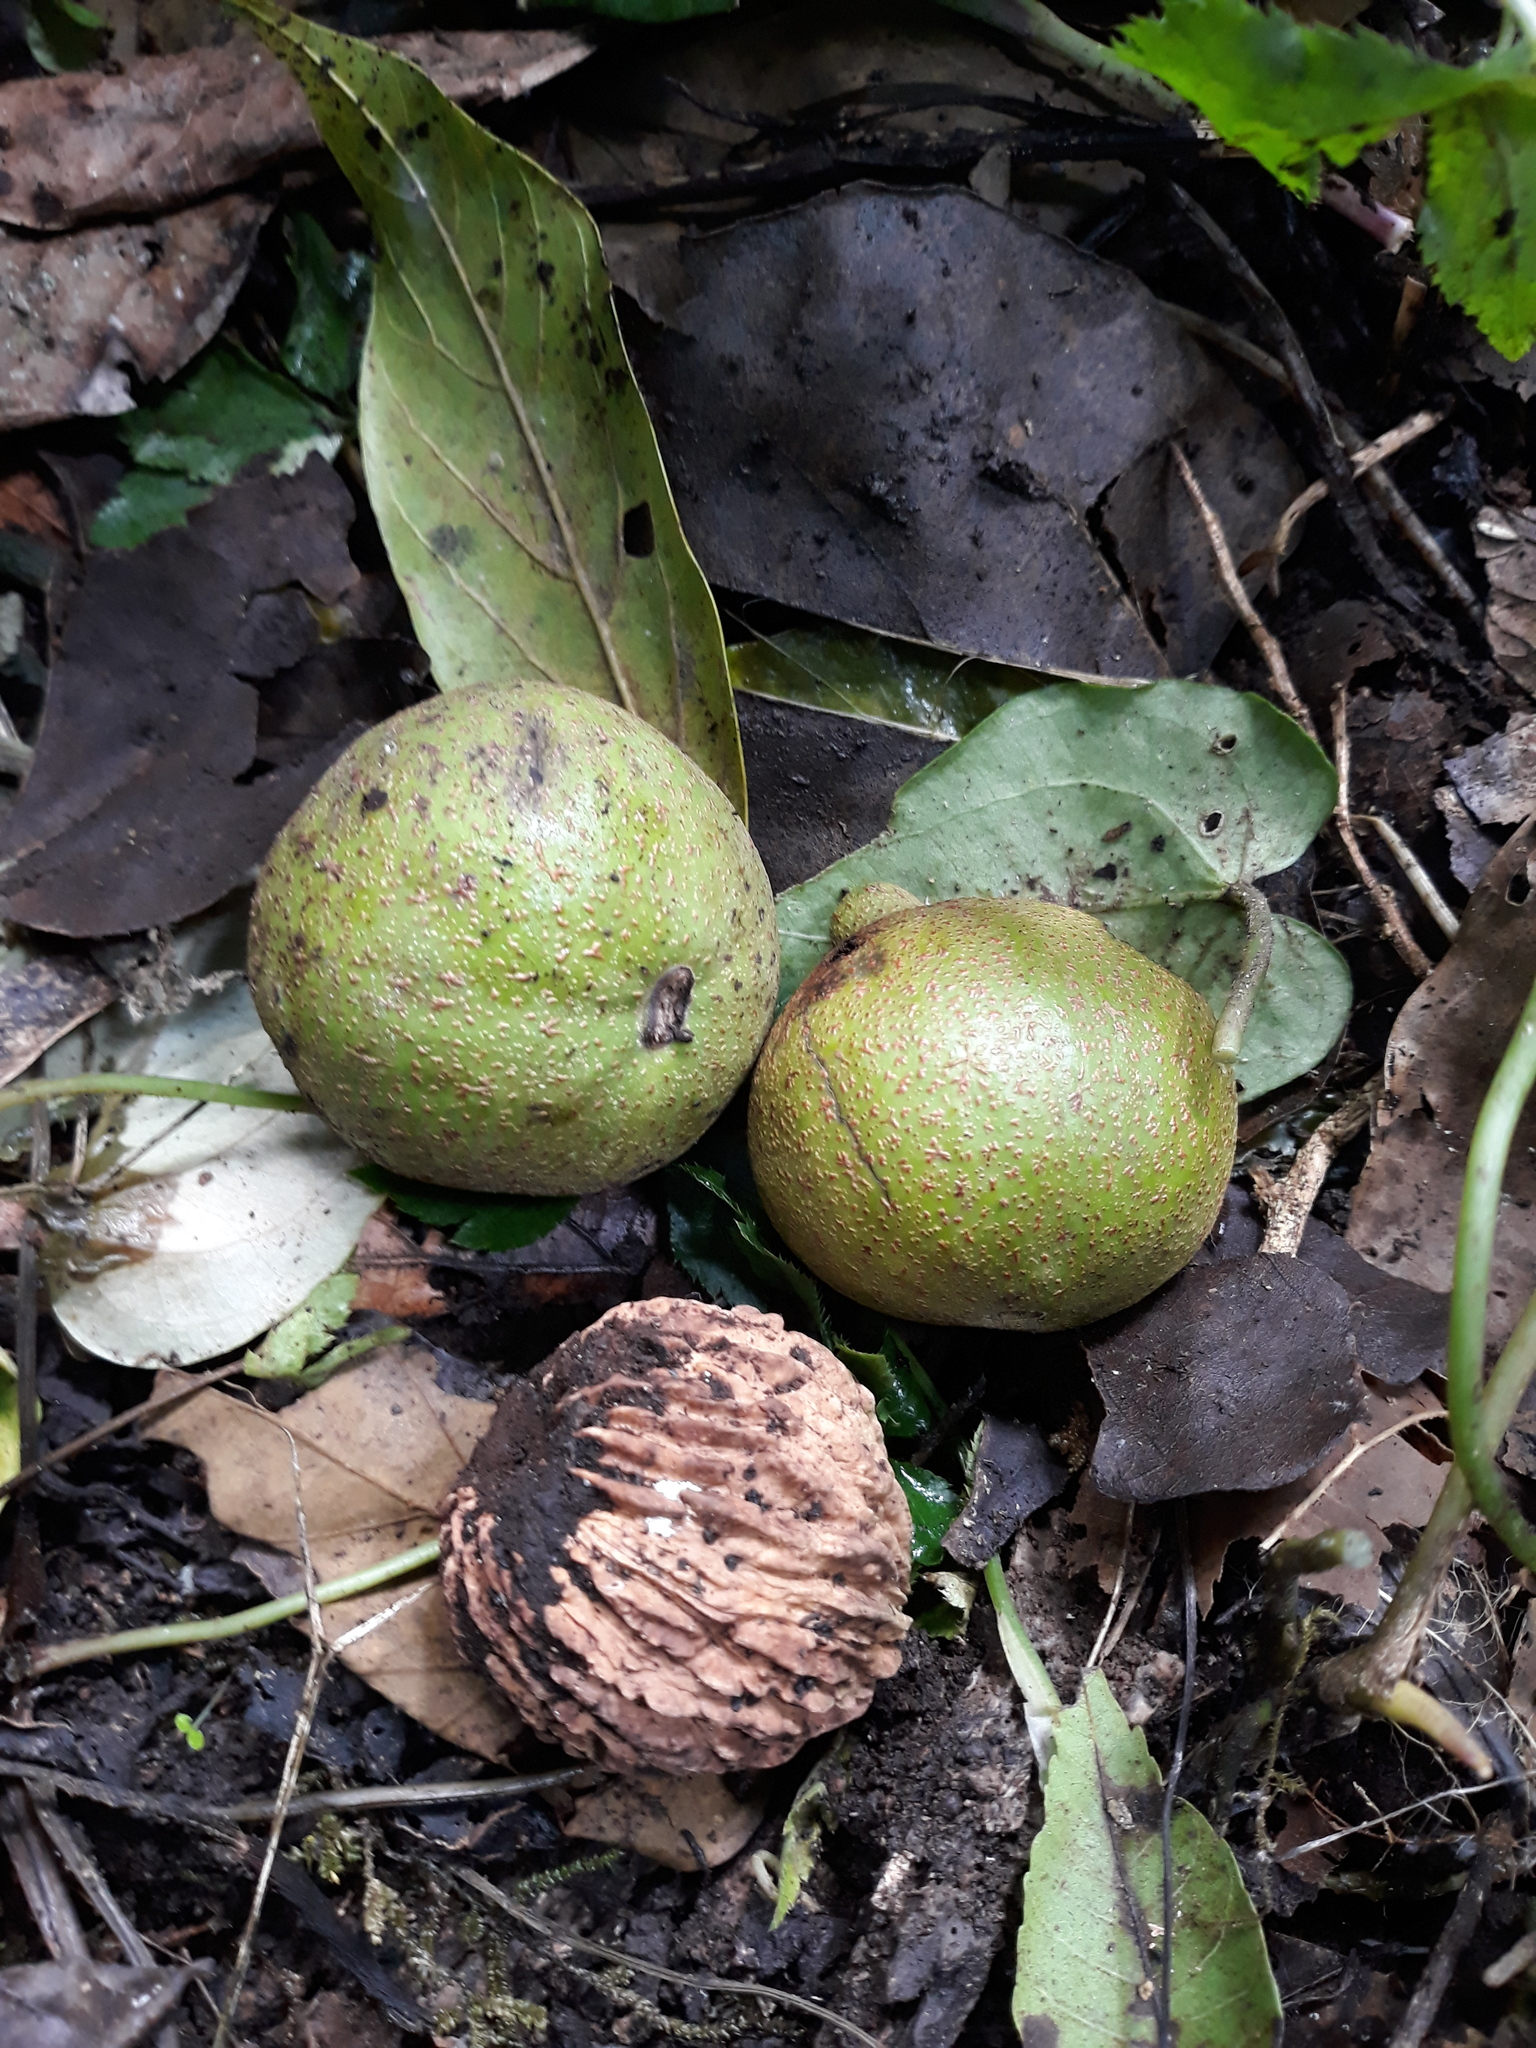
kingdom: Plantae
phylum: Tracheophyta
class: Magnoliopsida
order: Fagales
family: Juglandaceae
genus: Juglans
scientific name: Juglans olanchana
